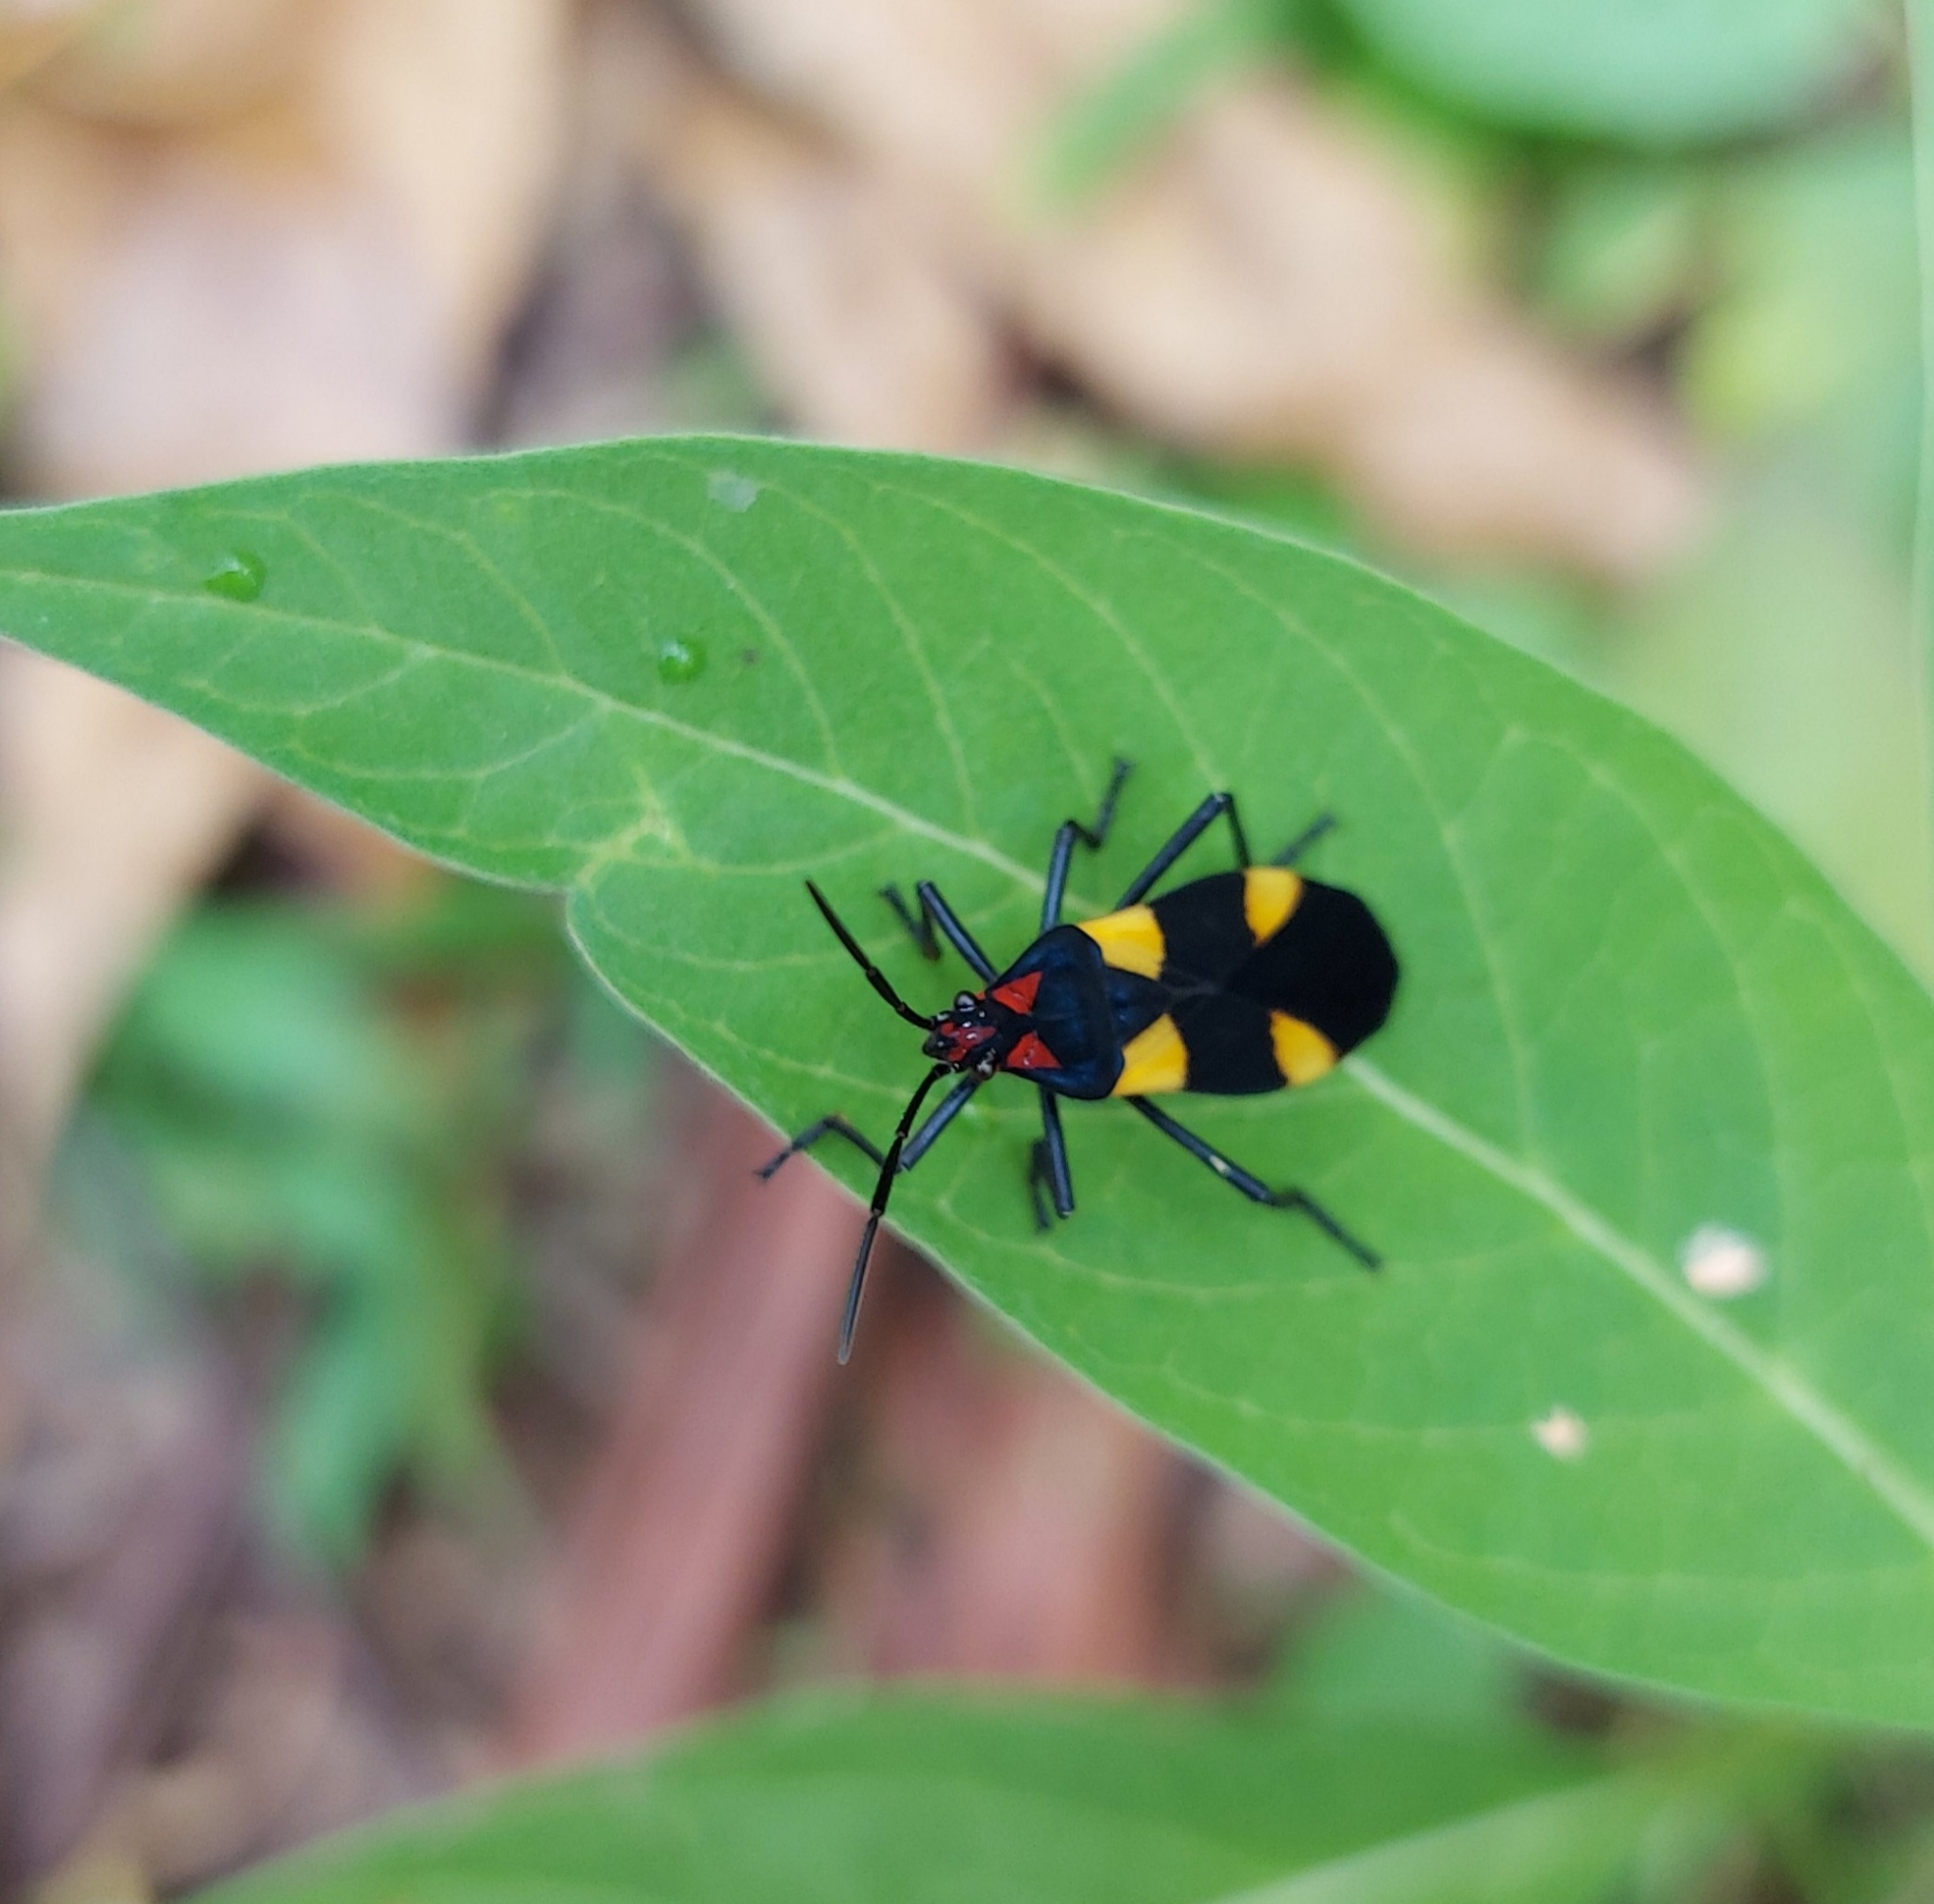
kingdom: Animalia
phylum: Arthropoda
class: Insecta
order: Hemiptera
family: Lygaeidae
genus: Oncopeltus
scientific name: Oncopeltus varicolor
